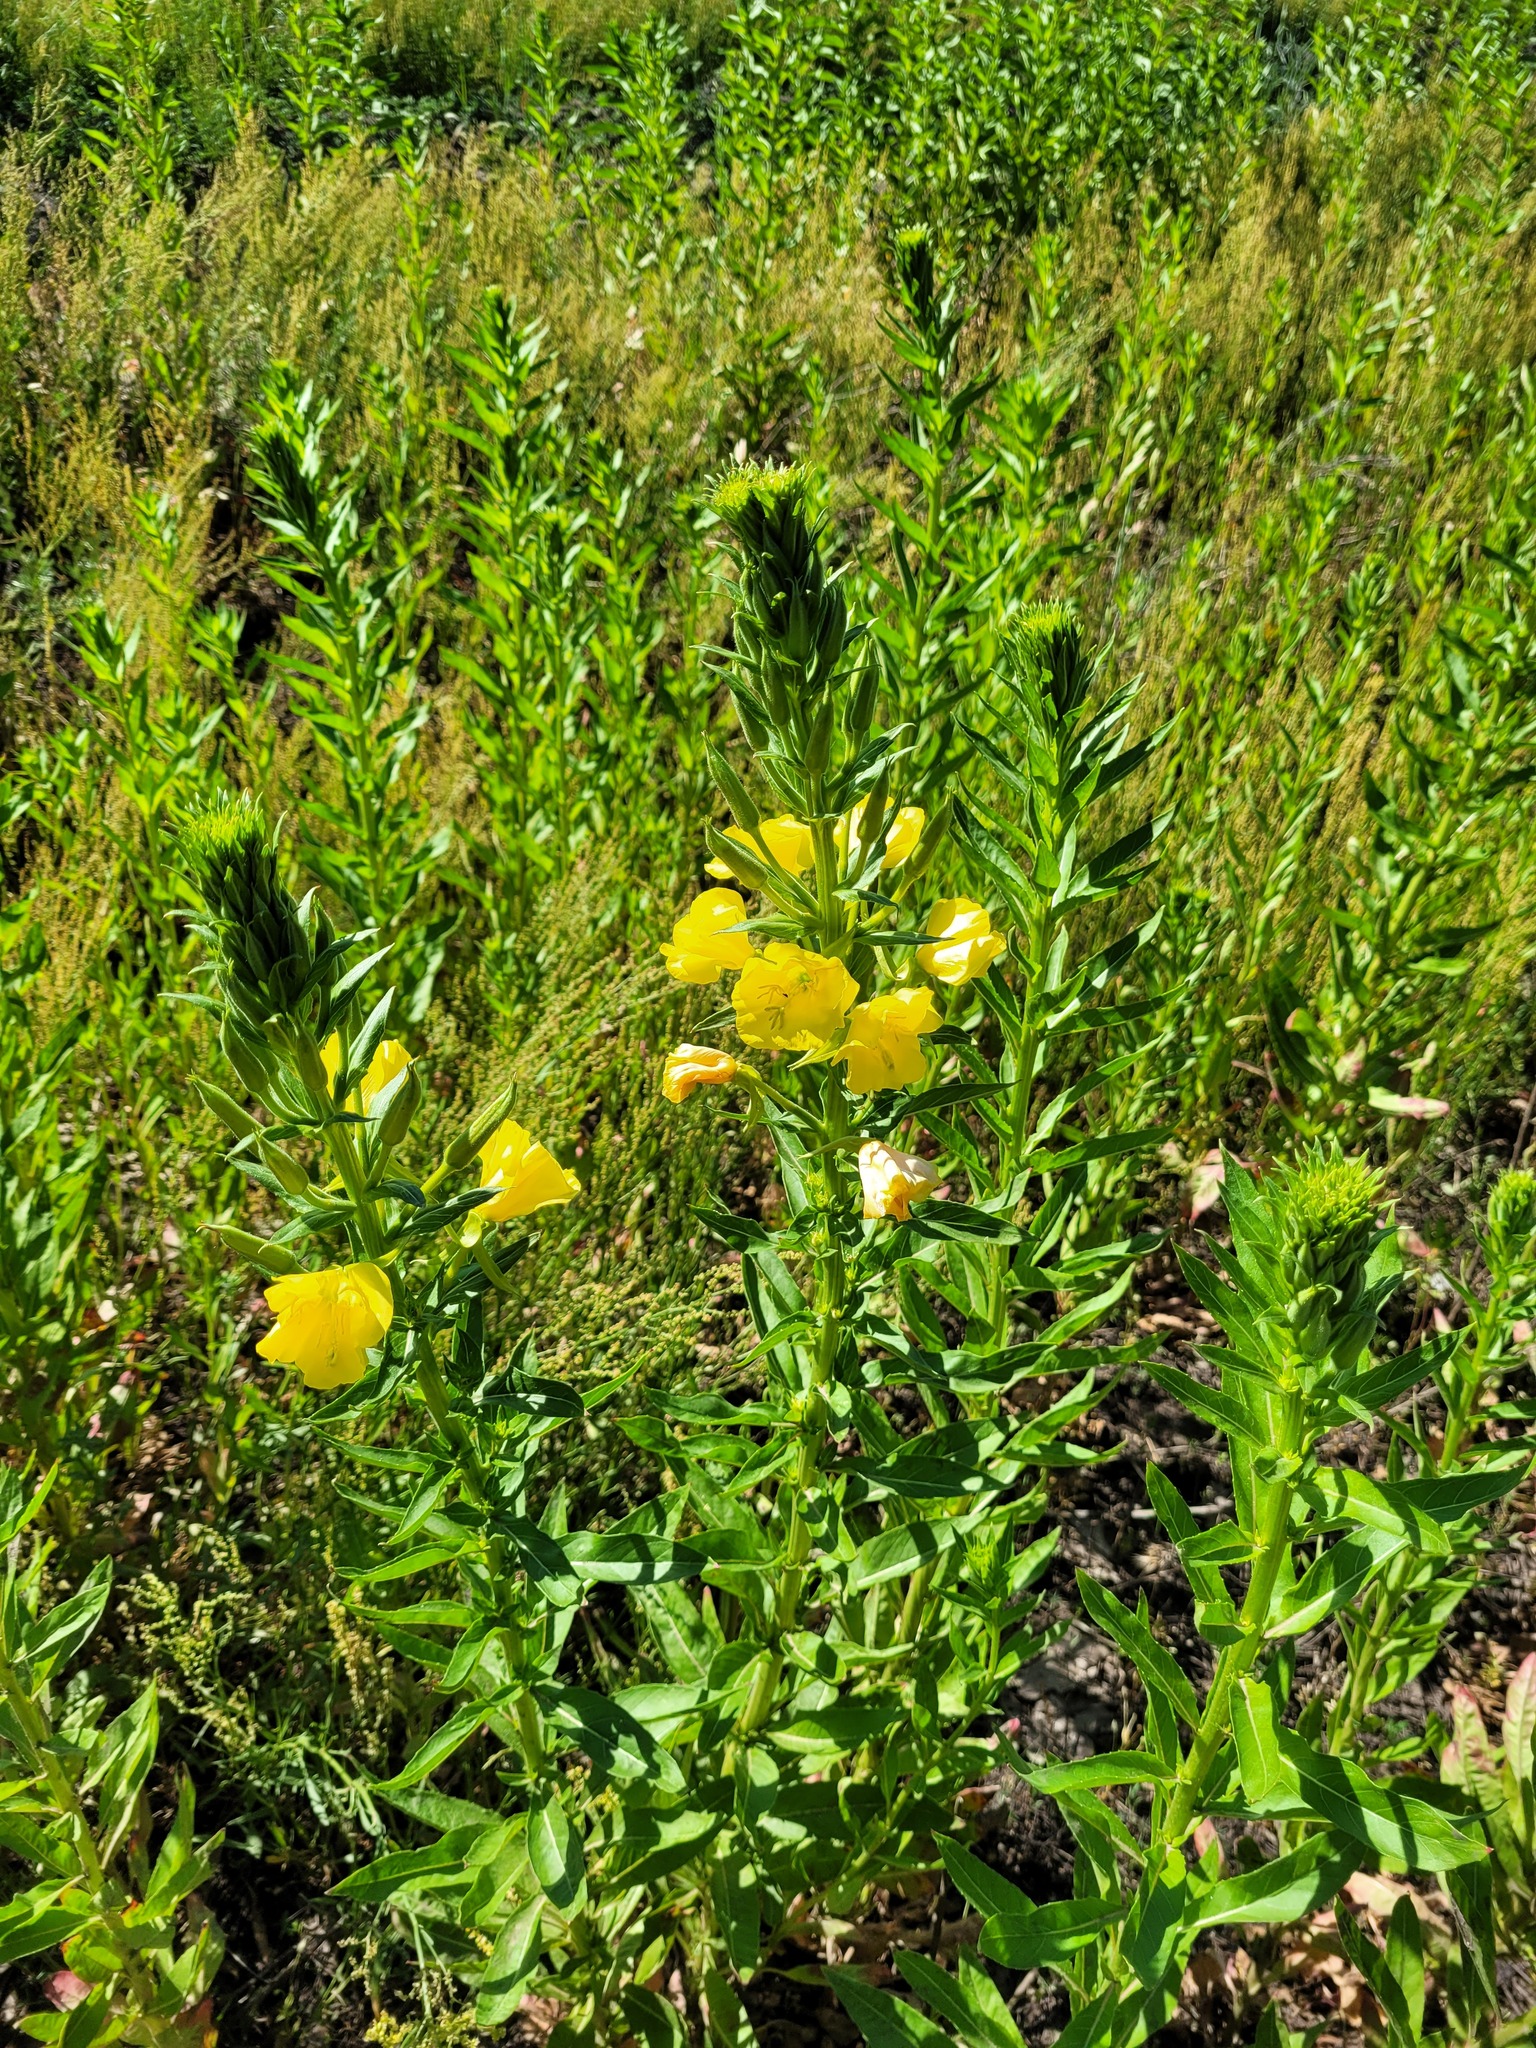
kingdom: Plantae
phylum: Tracheophyta
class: Magnoliopsida
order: Myrtales
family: Onagraceae
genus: Oenothera
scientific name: Oenothera biennis
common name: Common evening-primrose
